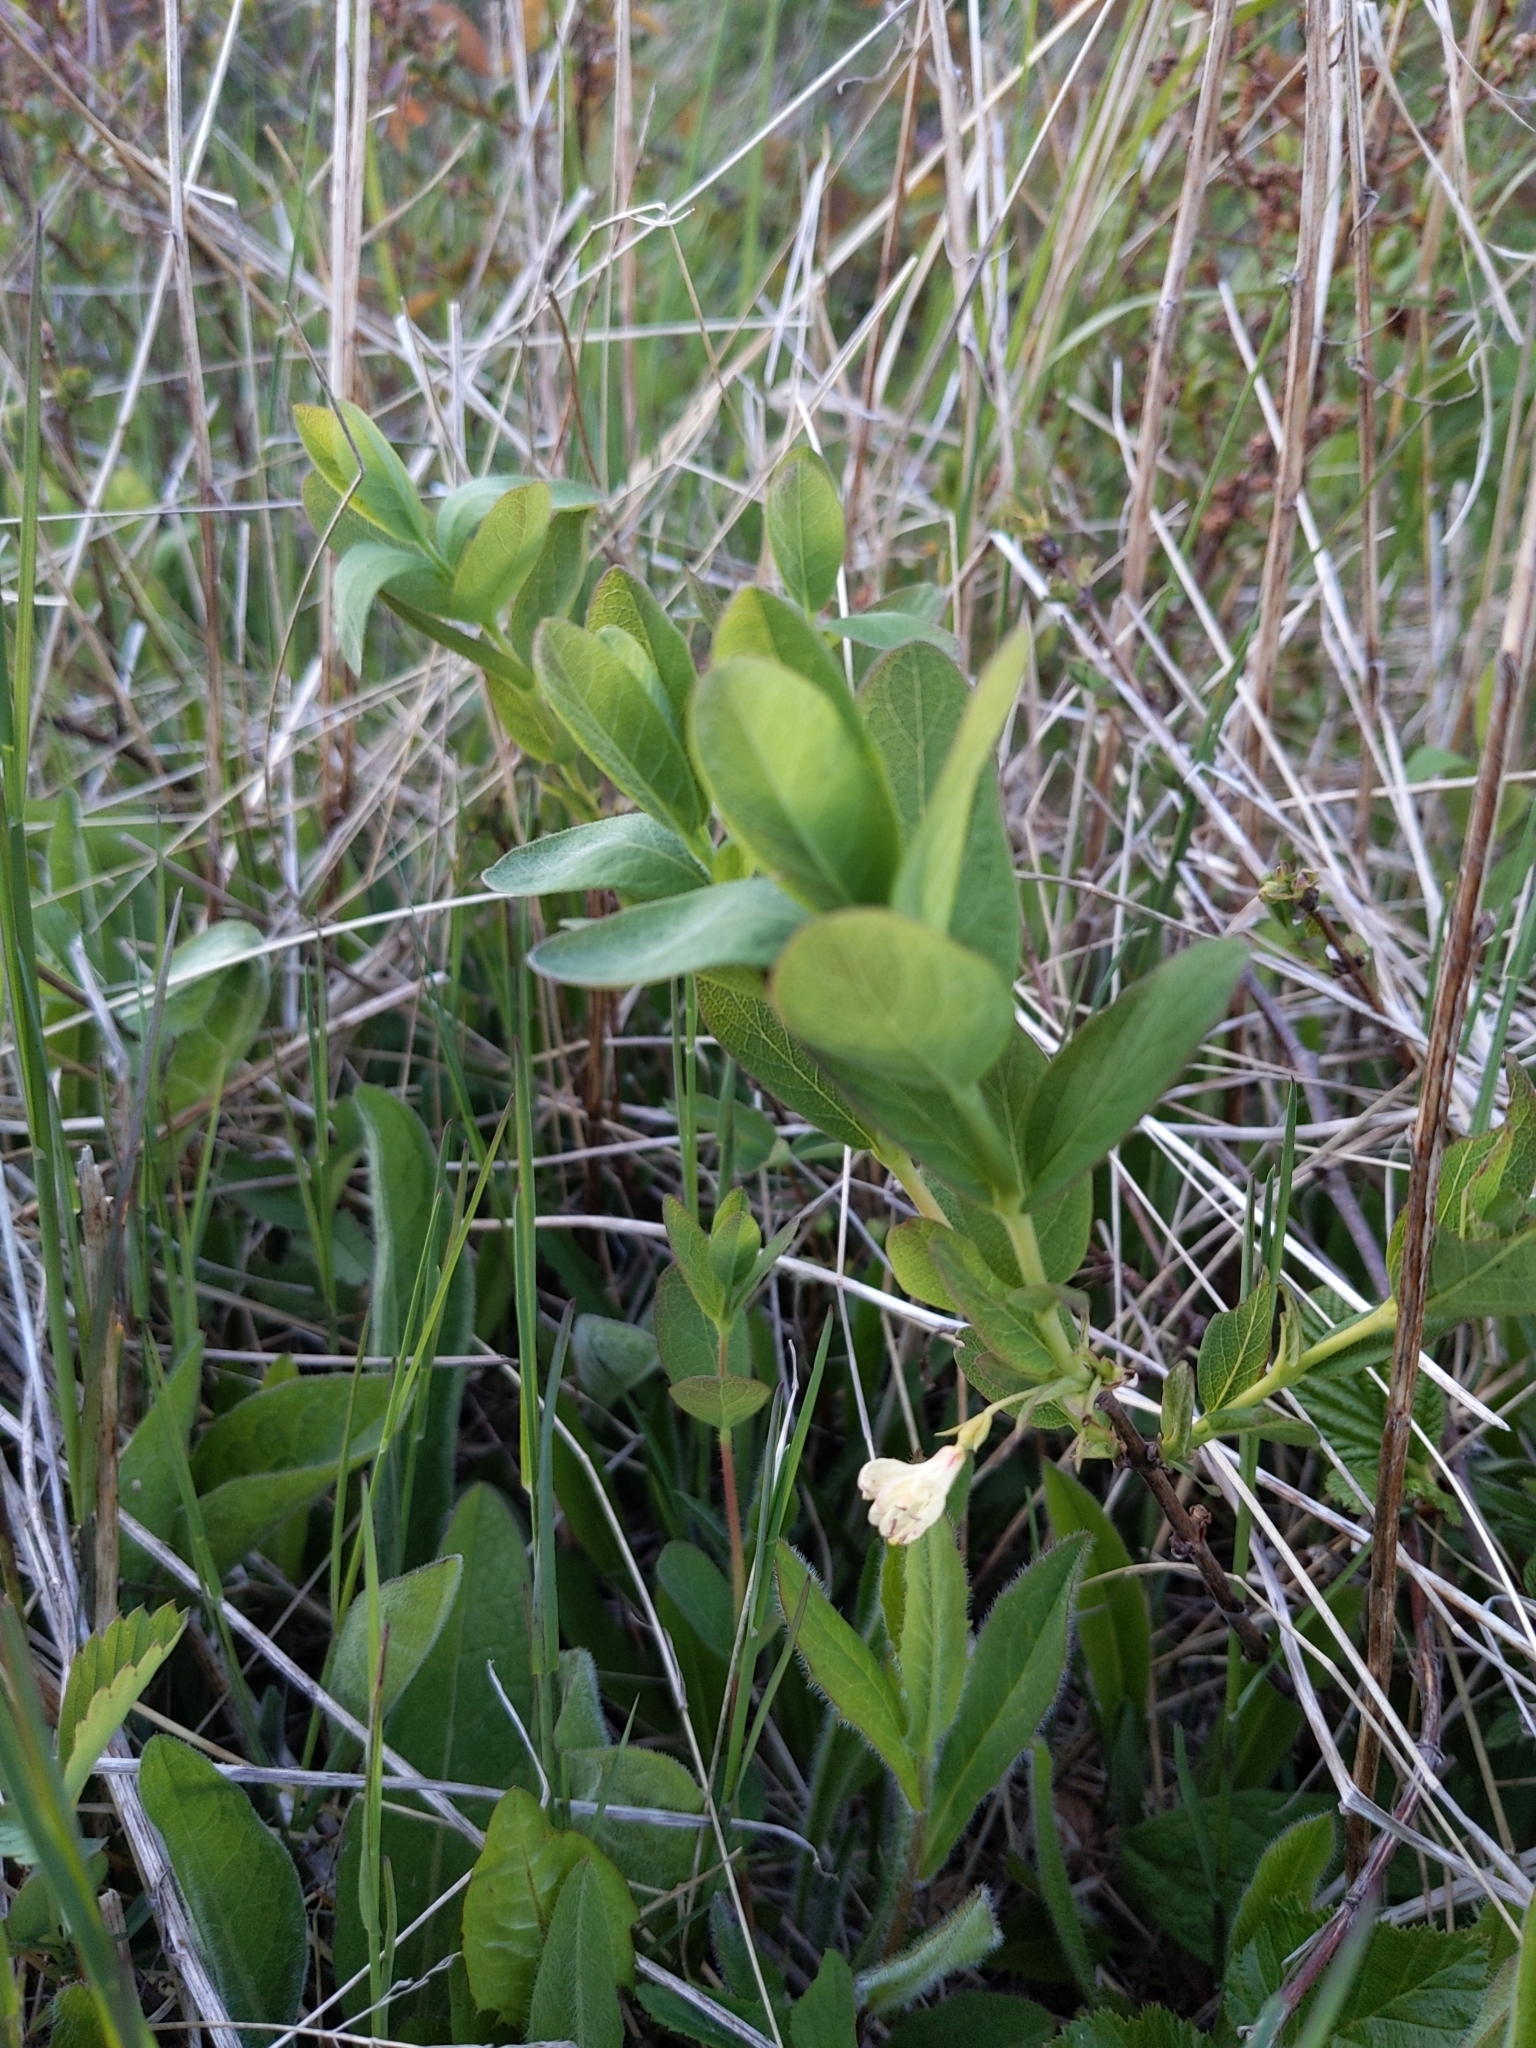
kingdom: Plantae
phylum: Tracheophyta
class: Magnoliopsida
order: Dipsacales
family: Caprifoliaceae
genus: Lonicera
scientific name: Lonicera villosa
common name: Mountain fly-honeysuckle
